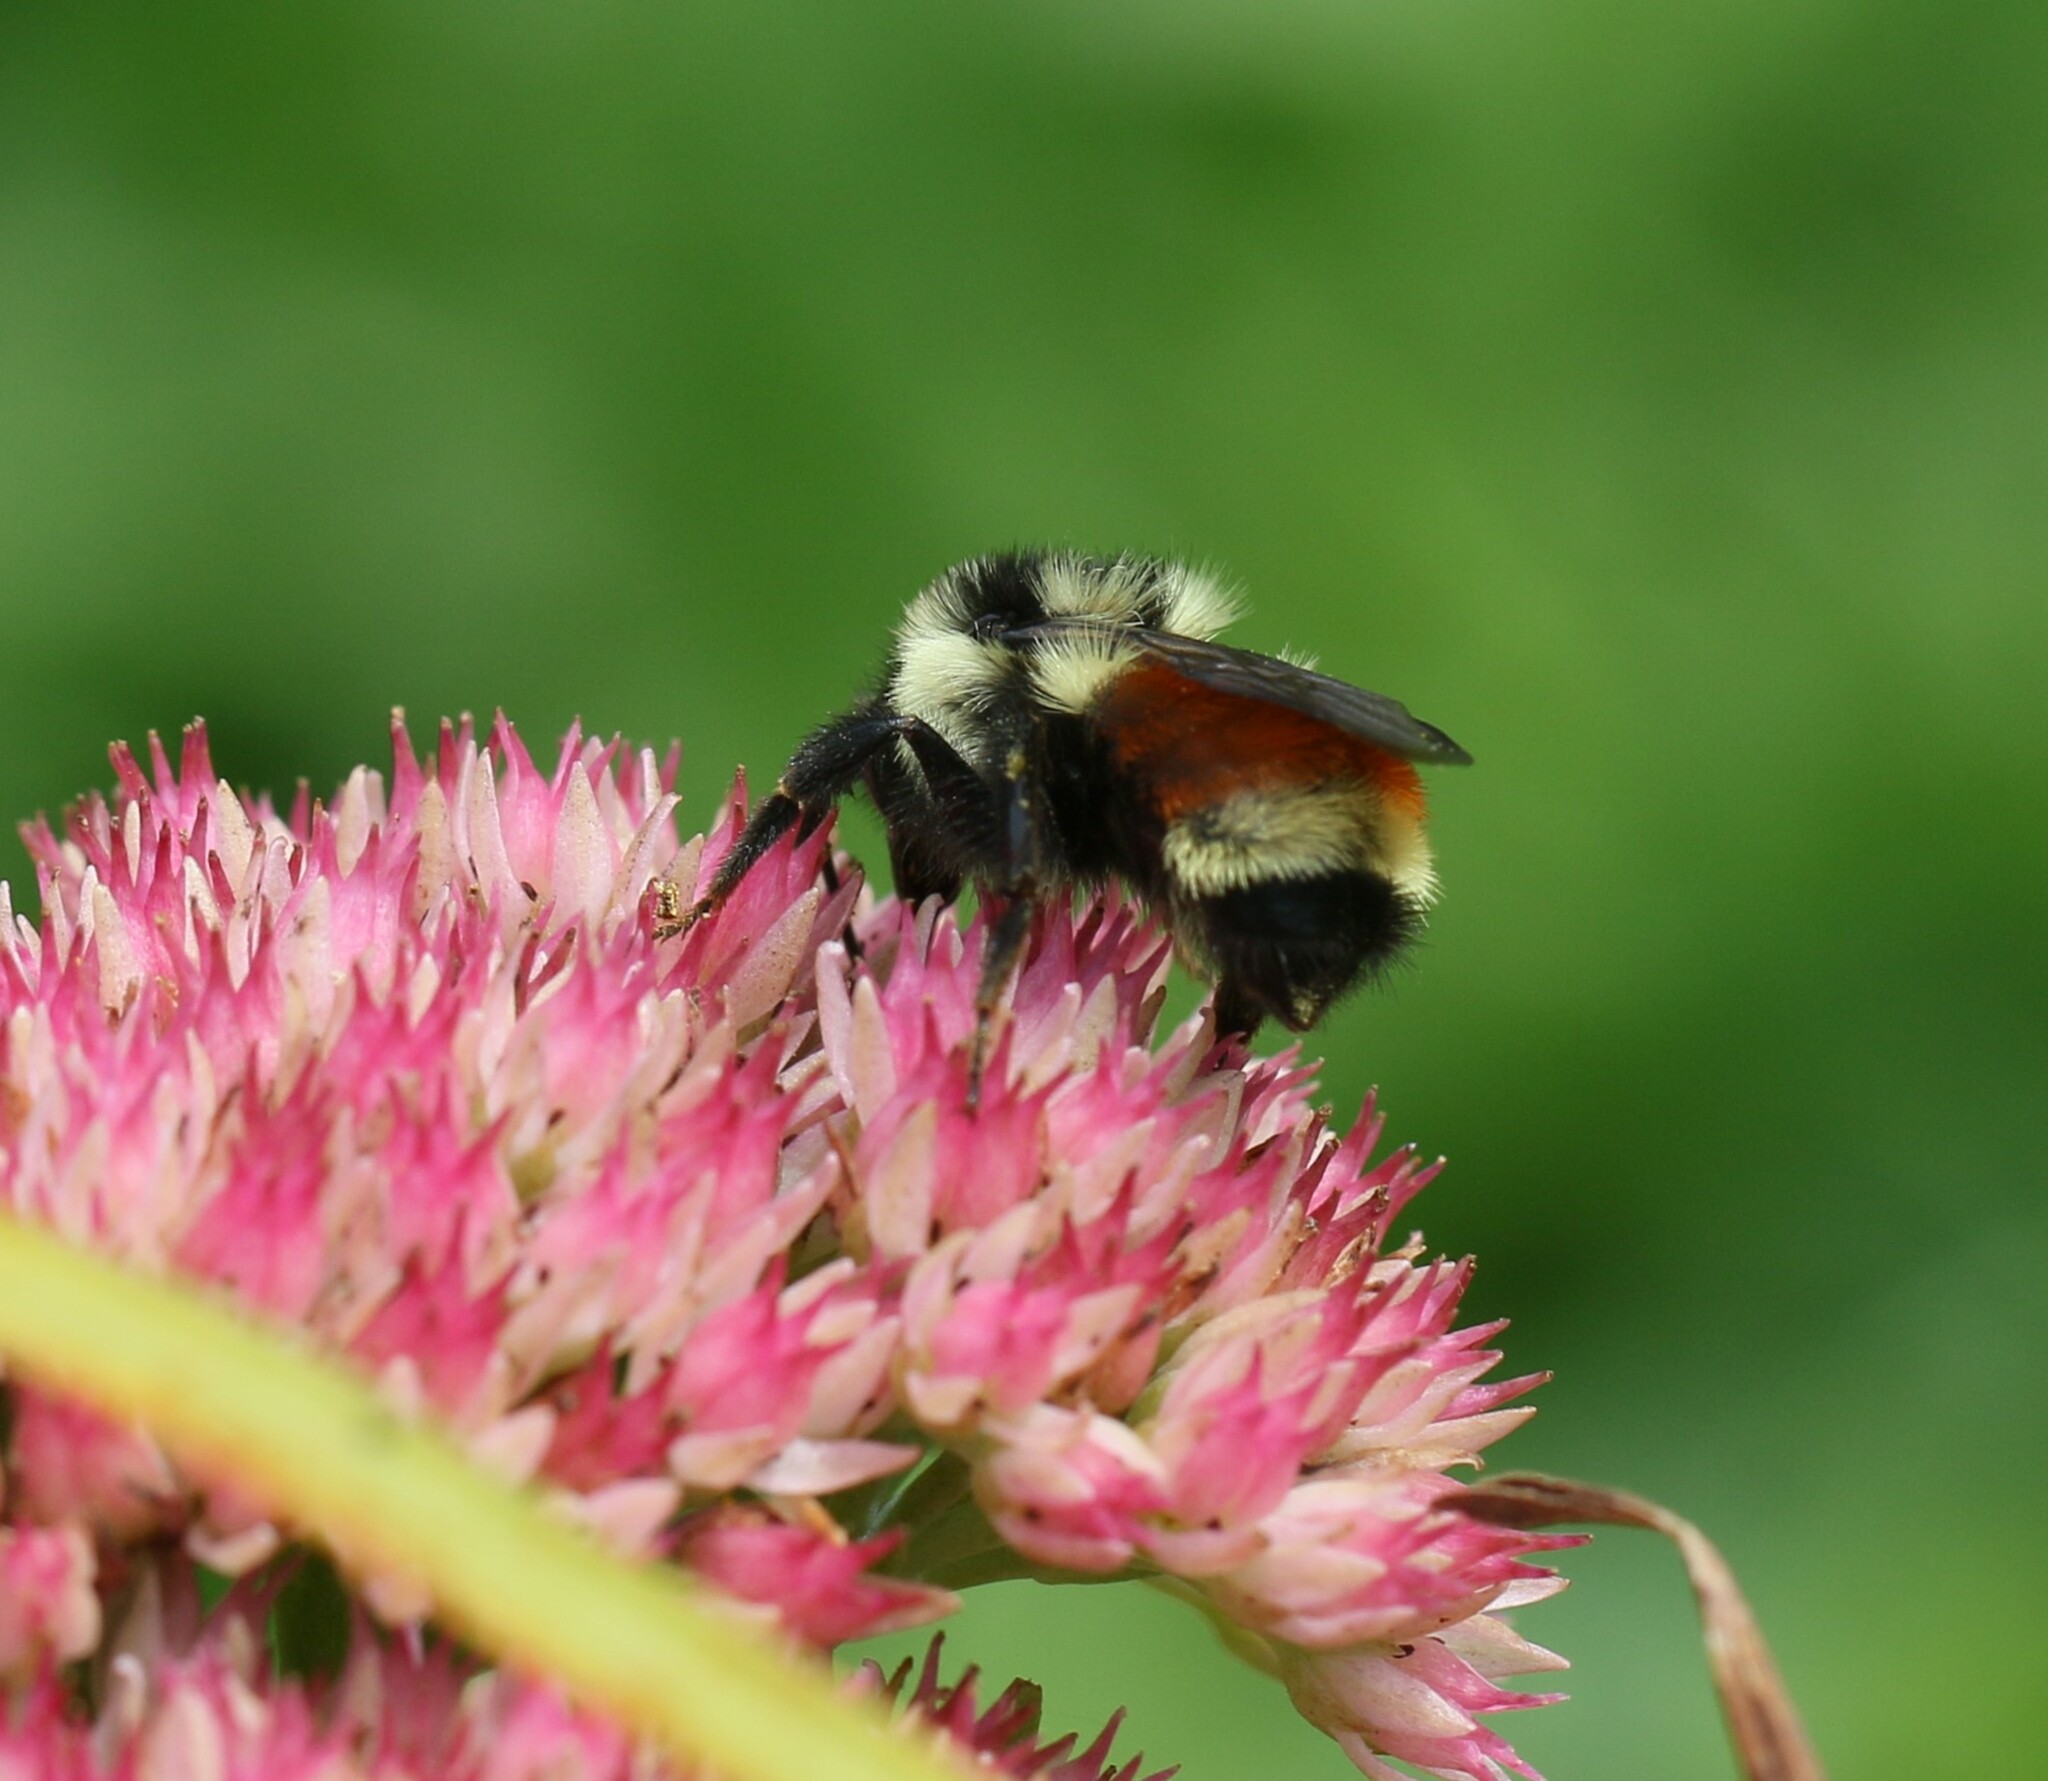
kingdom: Animalia
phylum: Arthropoda
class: Insecta
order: Hymenoptera
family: Apidae
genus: Bombus
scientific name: Bombus ternarius
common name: Tri-colored bumble bee
